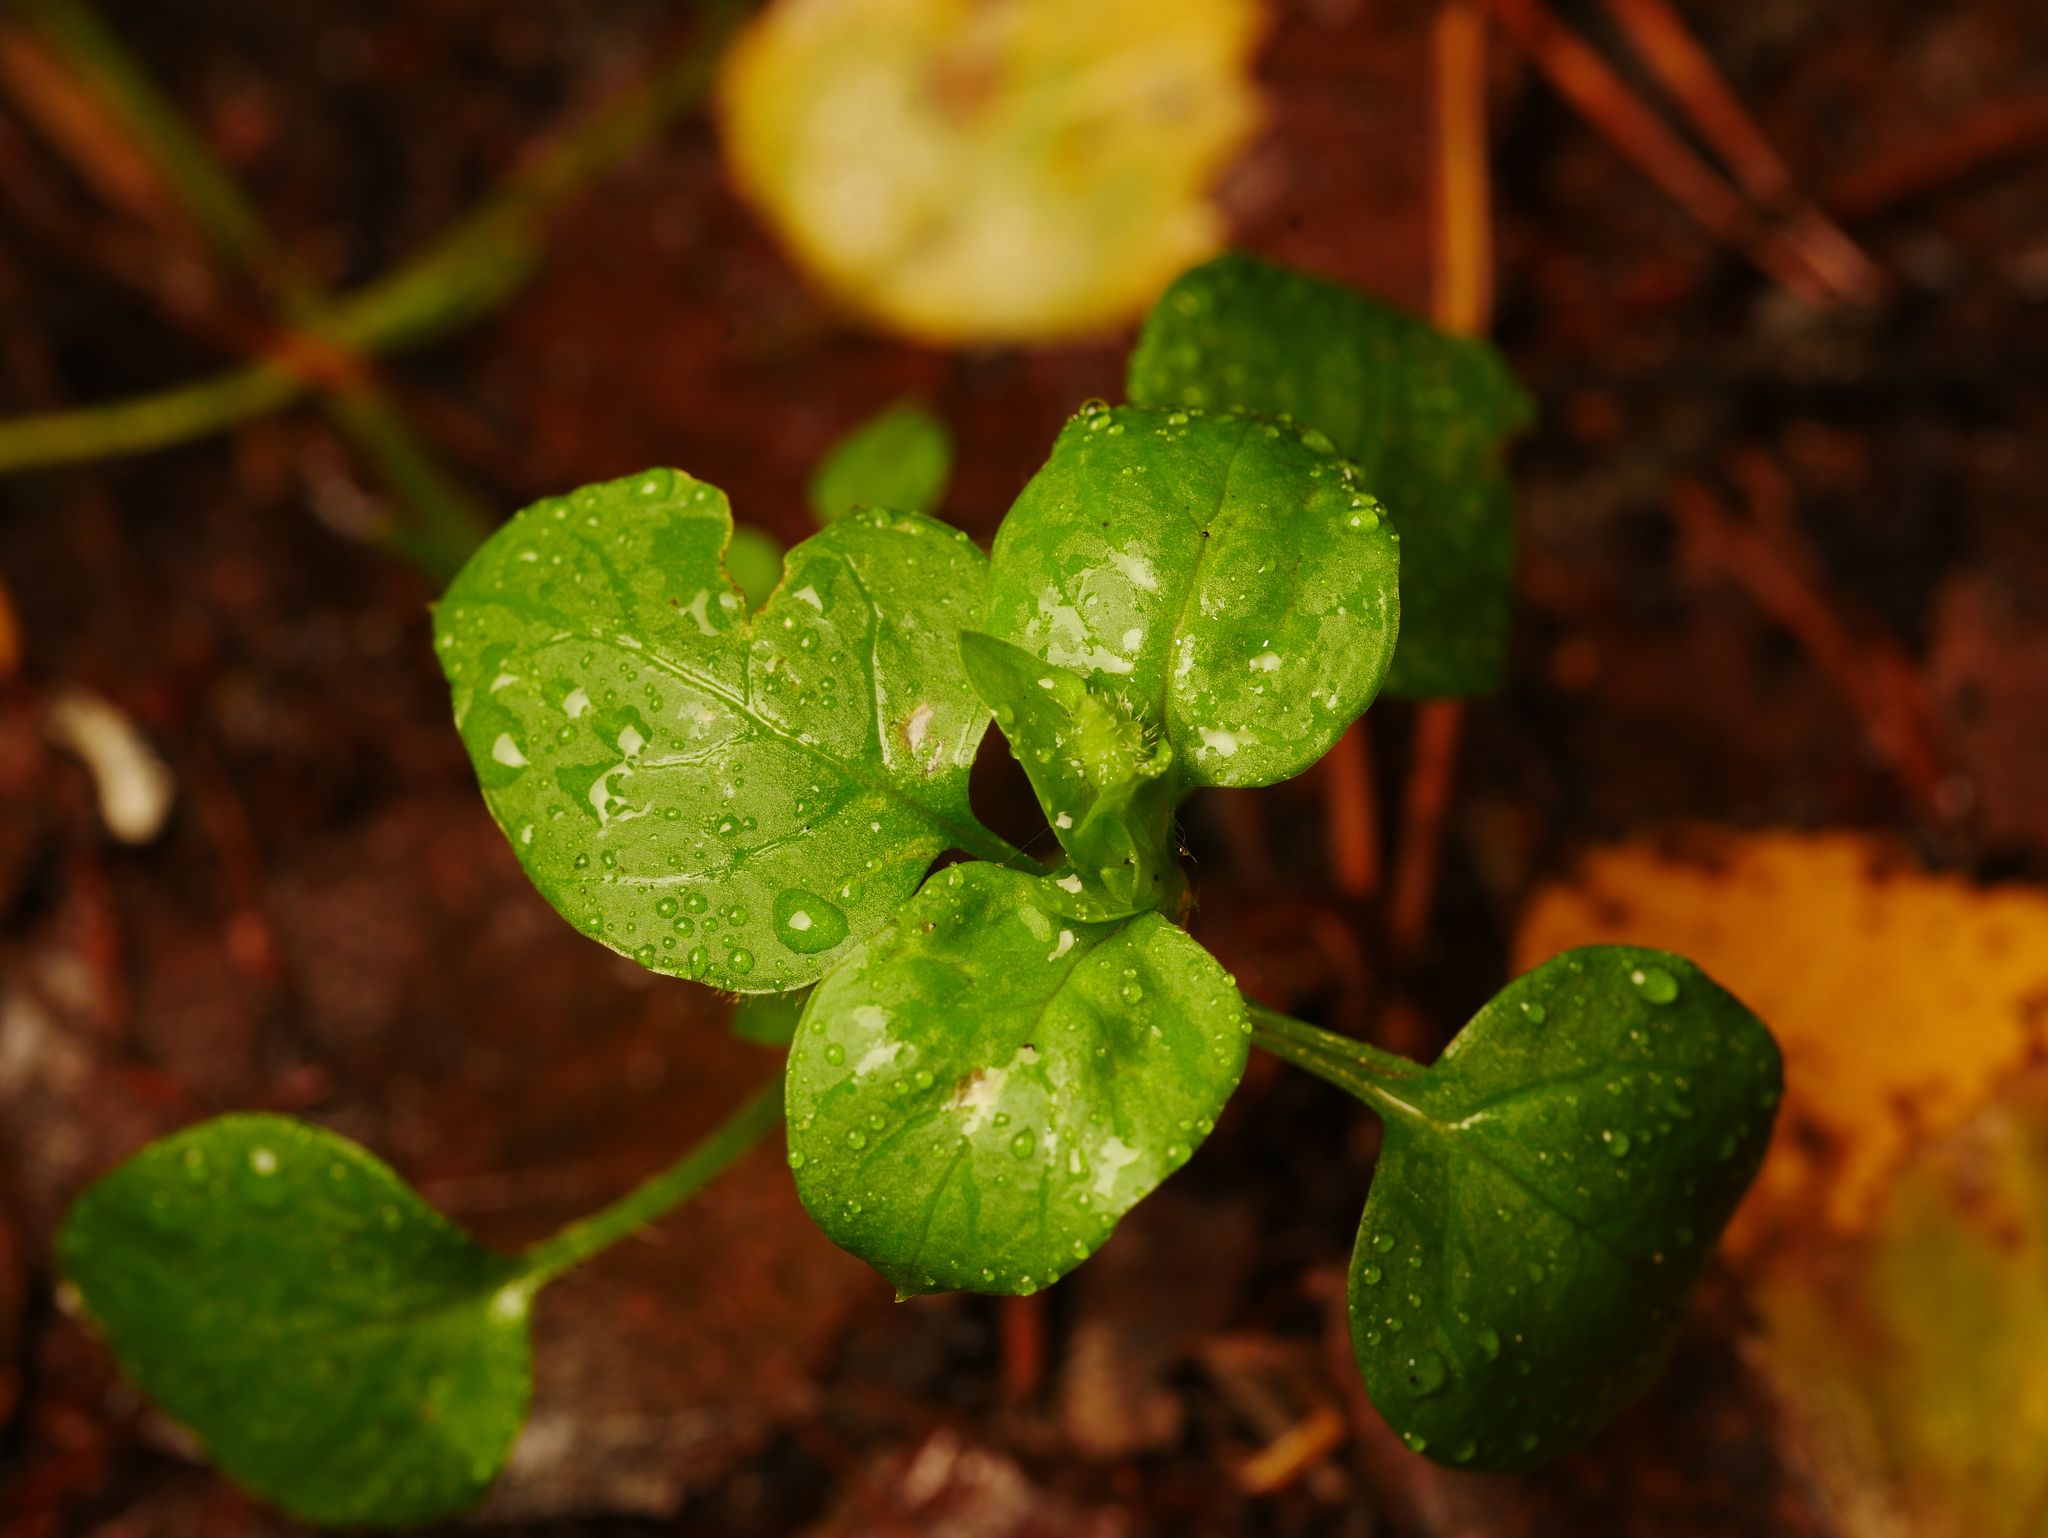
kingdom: Plantae
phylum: Tracheophyta
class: Magnoliopsida
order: Caryophyllales
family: Caryophyllaceae
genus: Stellaria
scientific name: Stellaria media
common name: Common chickweed
